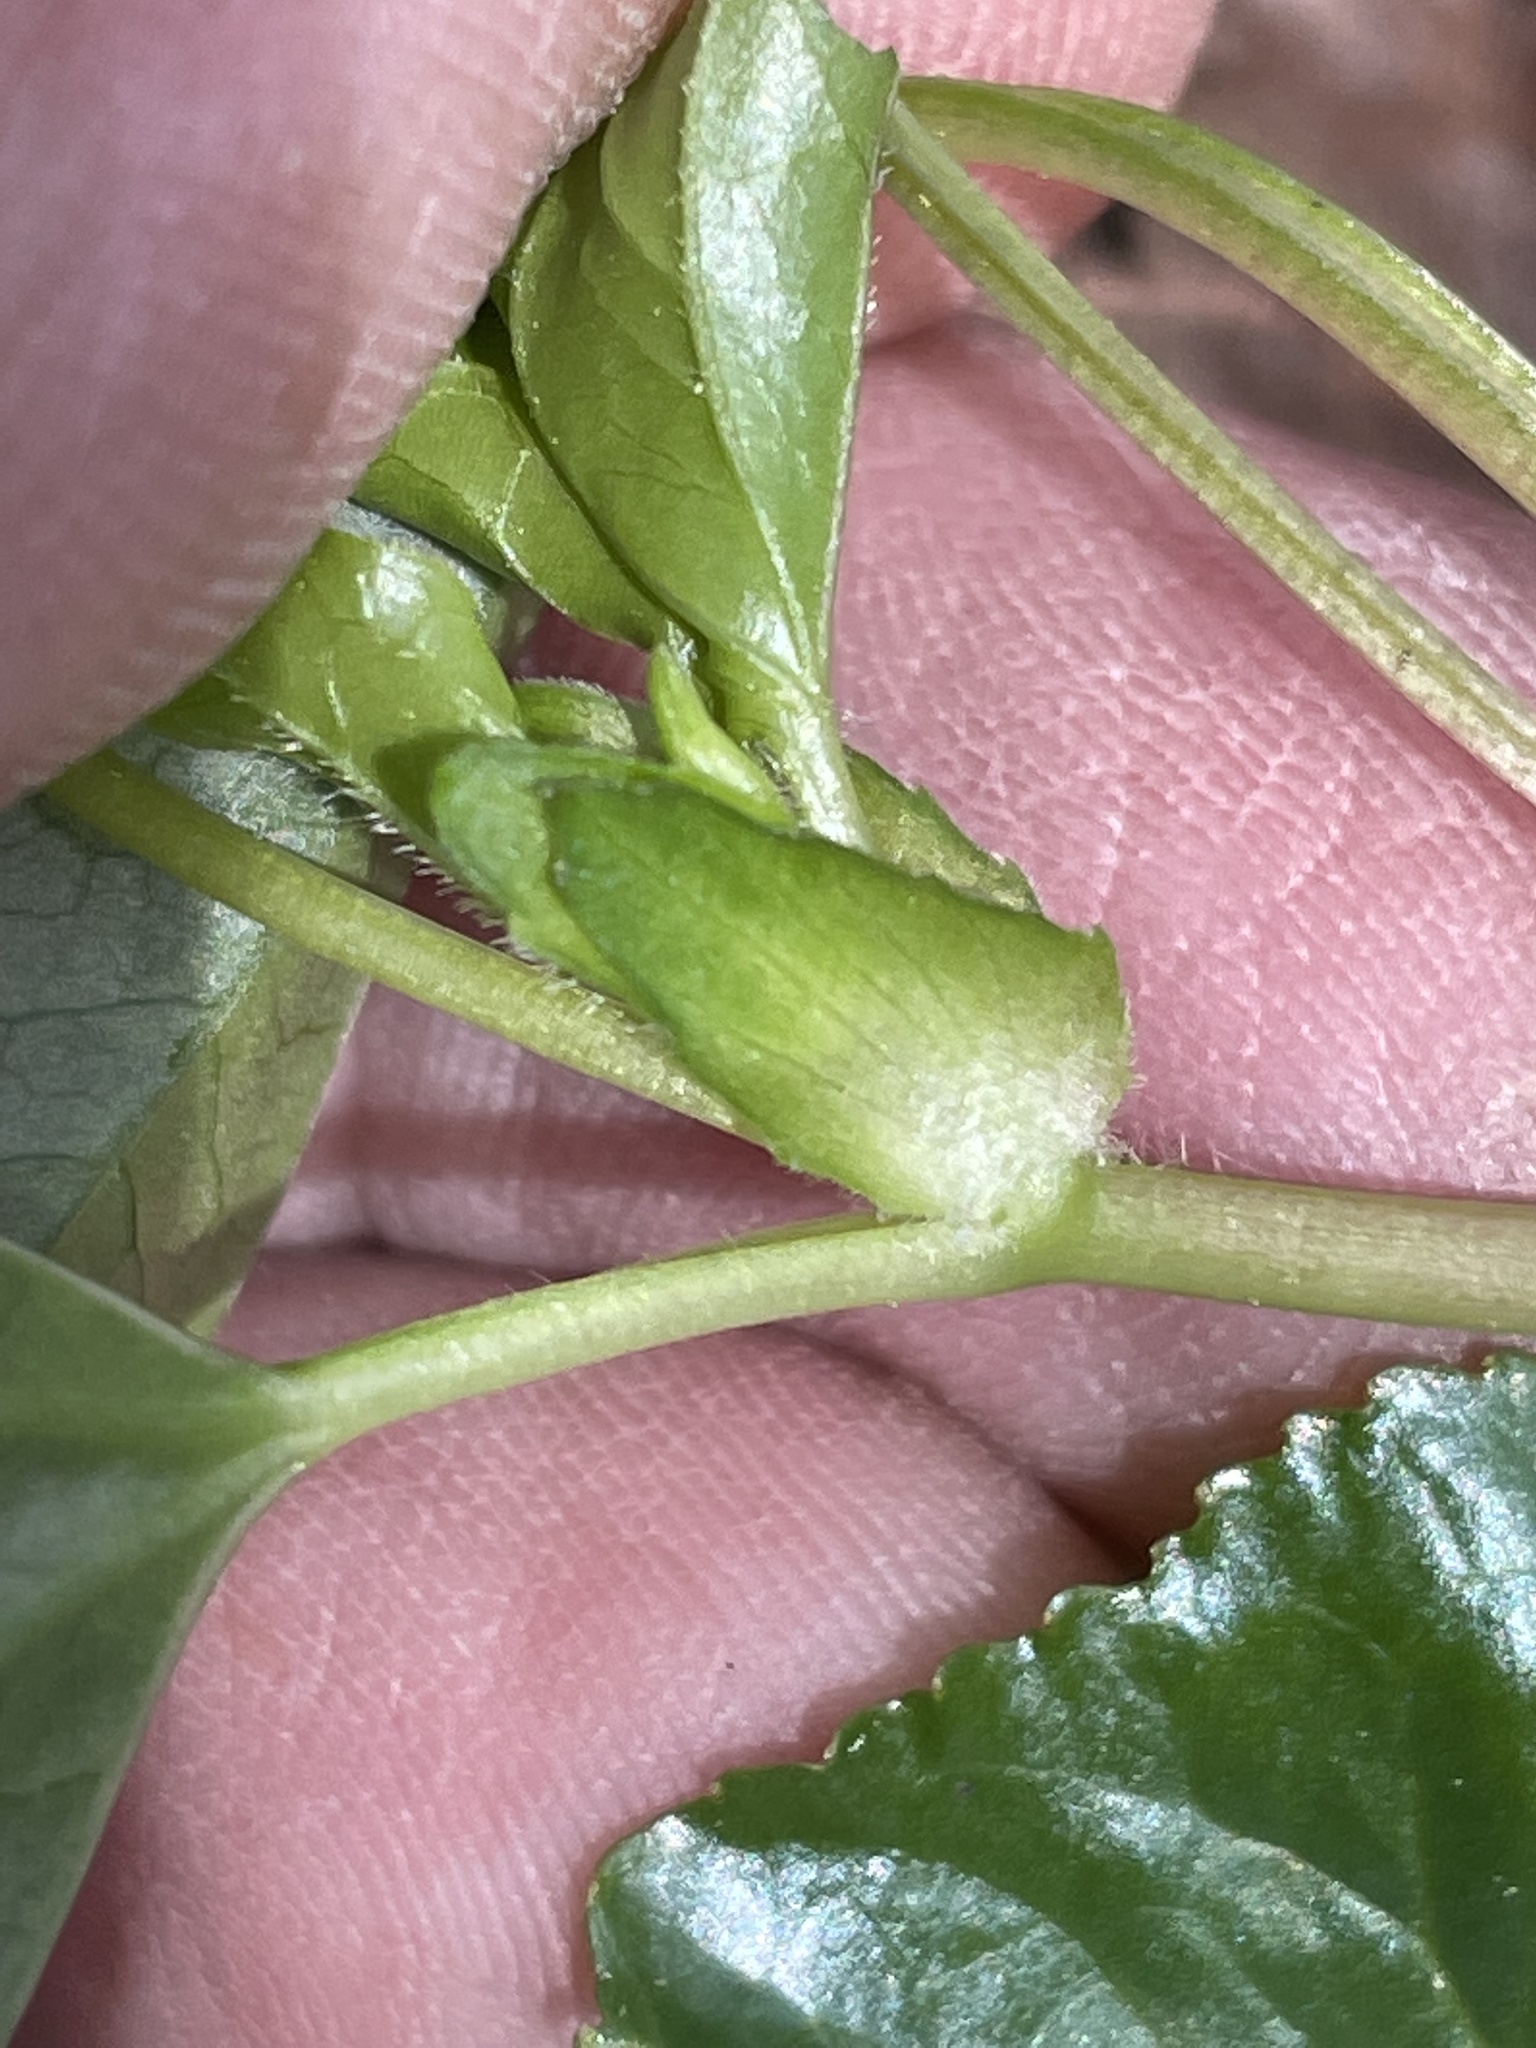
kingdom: Plantae
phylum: Tracheophyta
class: Magnoliopsida
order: Malpighiales
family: Violaceae
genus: Viola
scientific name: Viola eriocarpa
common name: Smooth yellow violet
